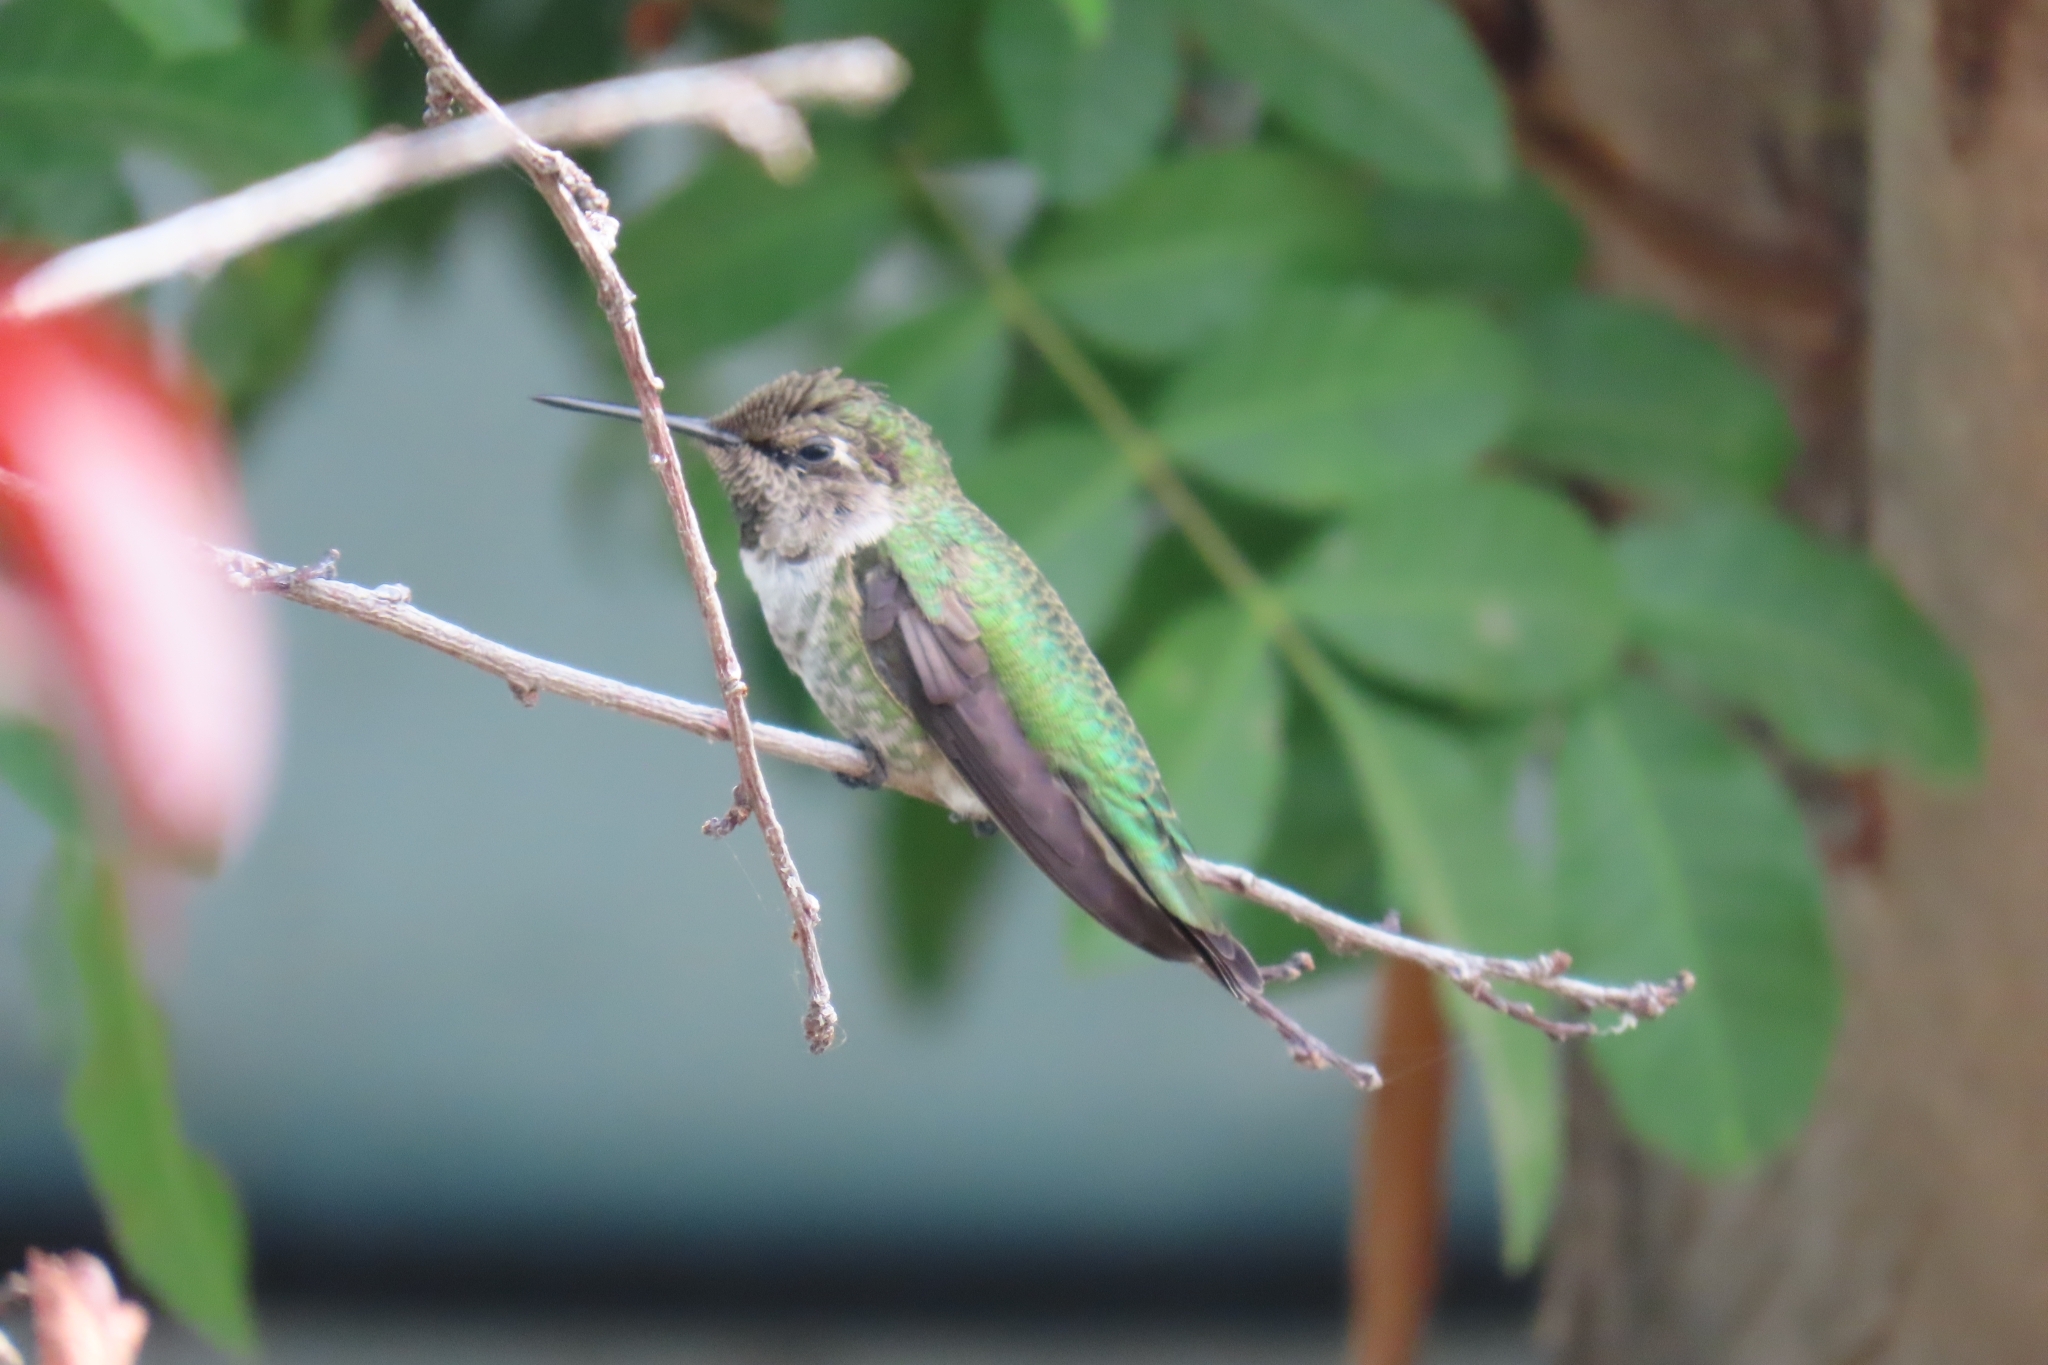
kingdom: Animalia
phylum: Chordata
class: Aves
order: Apodiformes
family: Trochilidae
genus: Calypte
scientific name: Calypte anna
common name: Anna's hummingbird
